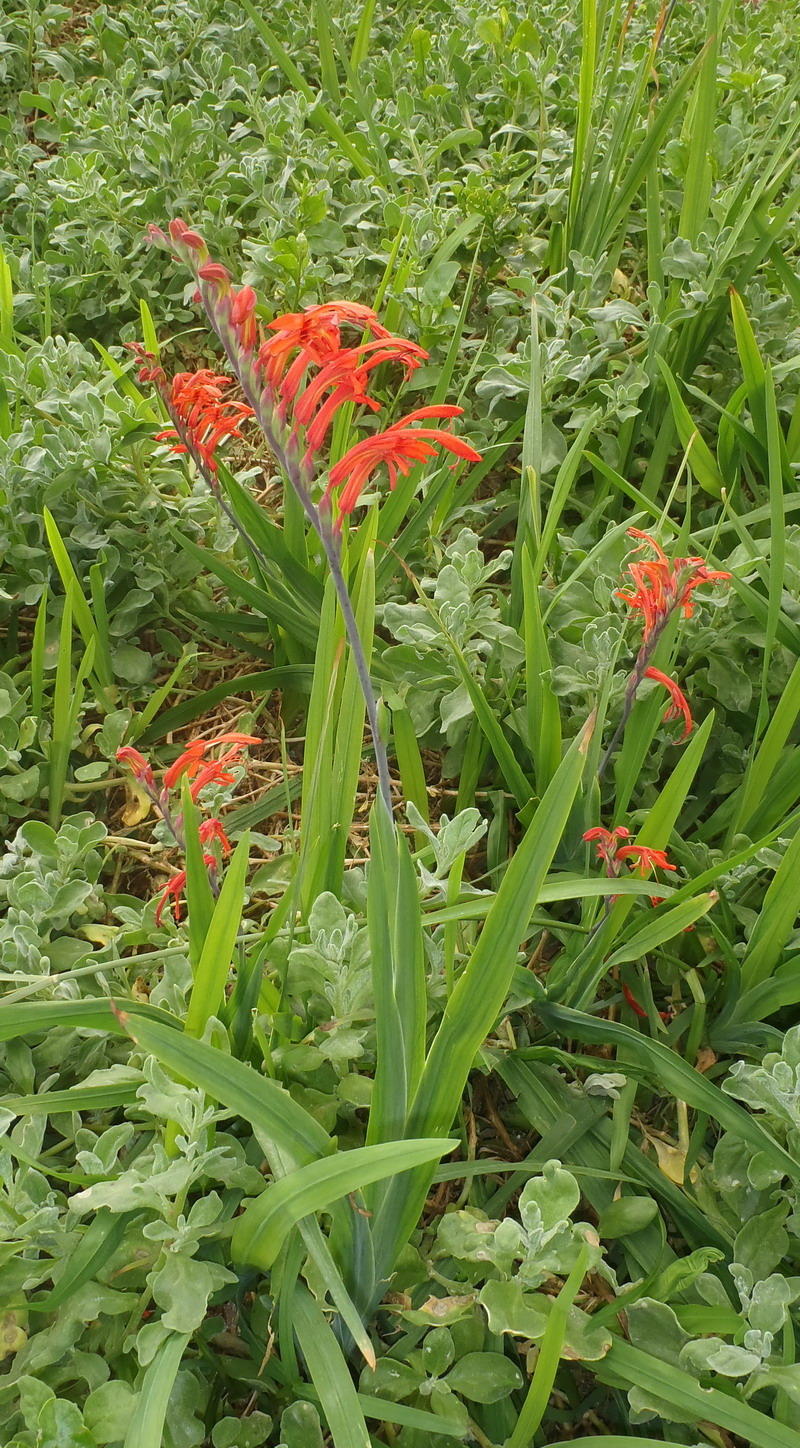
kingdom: Plantae
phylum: Tracheophyta
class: Liliopsida
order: Asparagales
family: Iridaceae
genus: Chasmanthe
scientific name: Chasmanthe aethiopica
